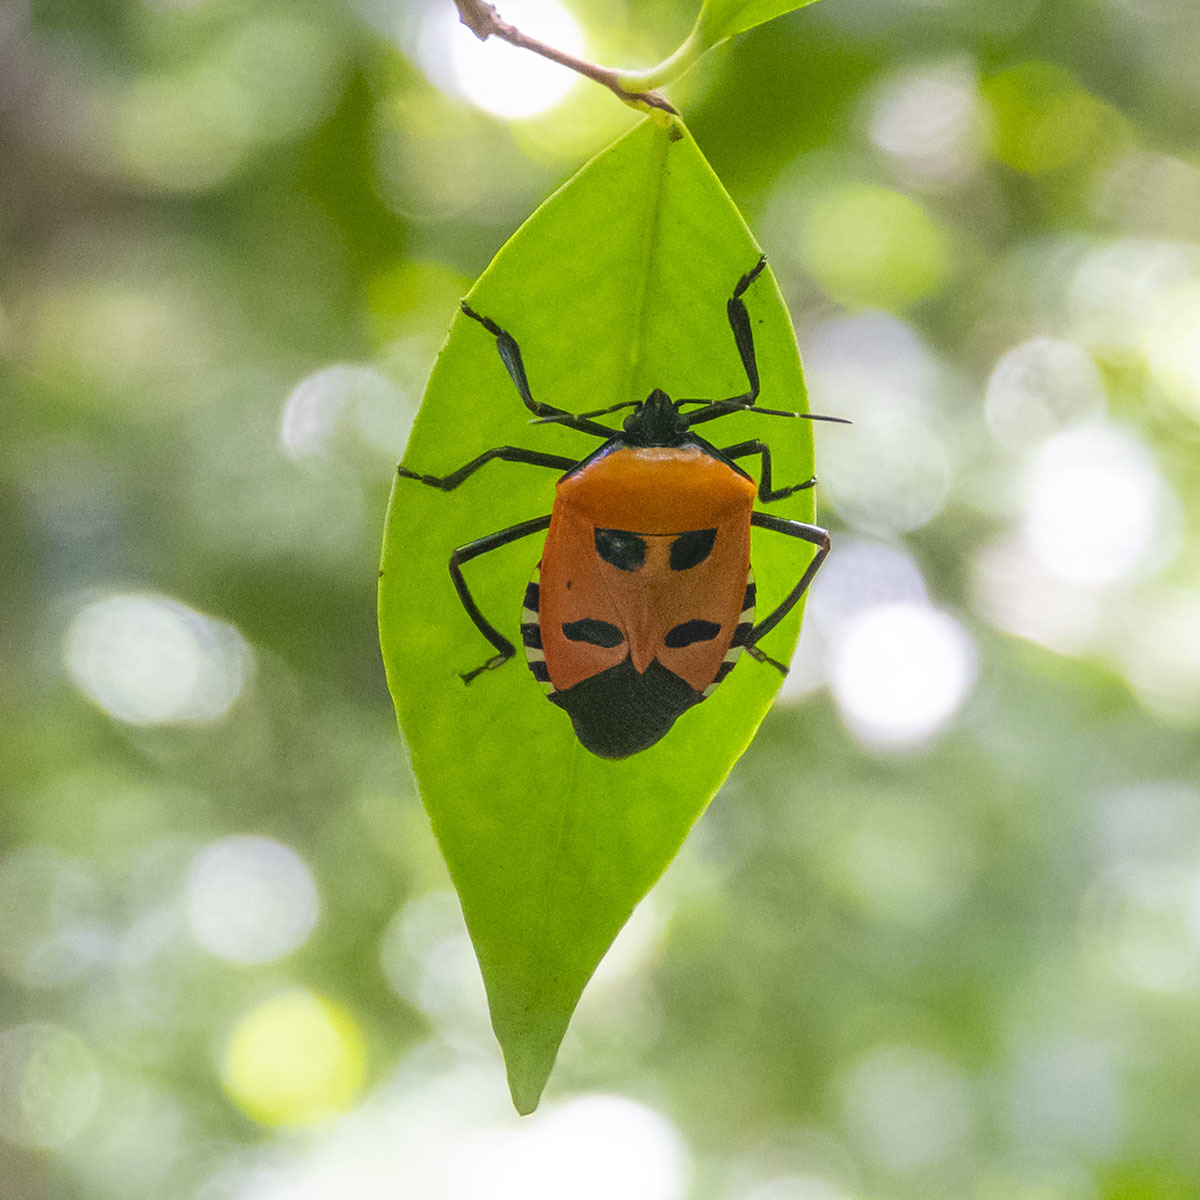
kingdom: Animalia
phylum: Arthropoda
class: Insecta
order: Hemiptera
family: Pentatomidae
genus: Catacanthus
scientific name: Catacanthus incarnatus
